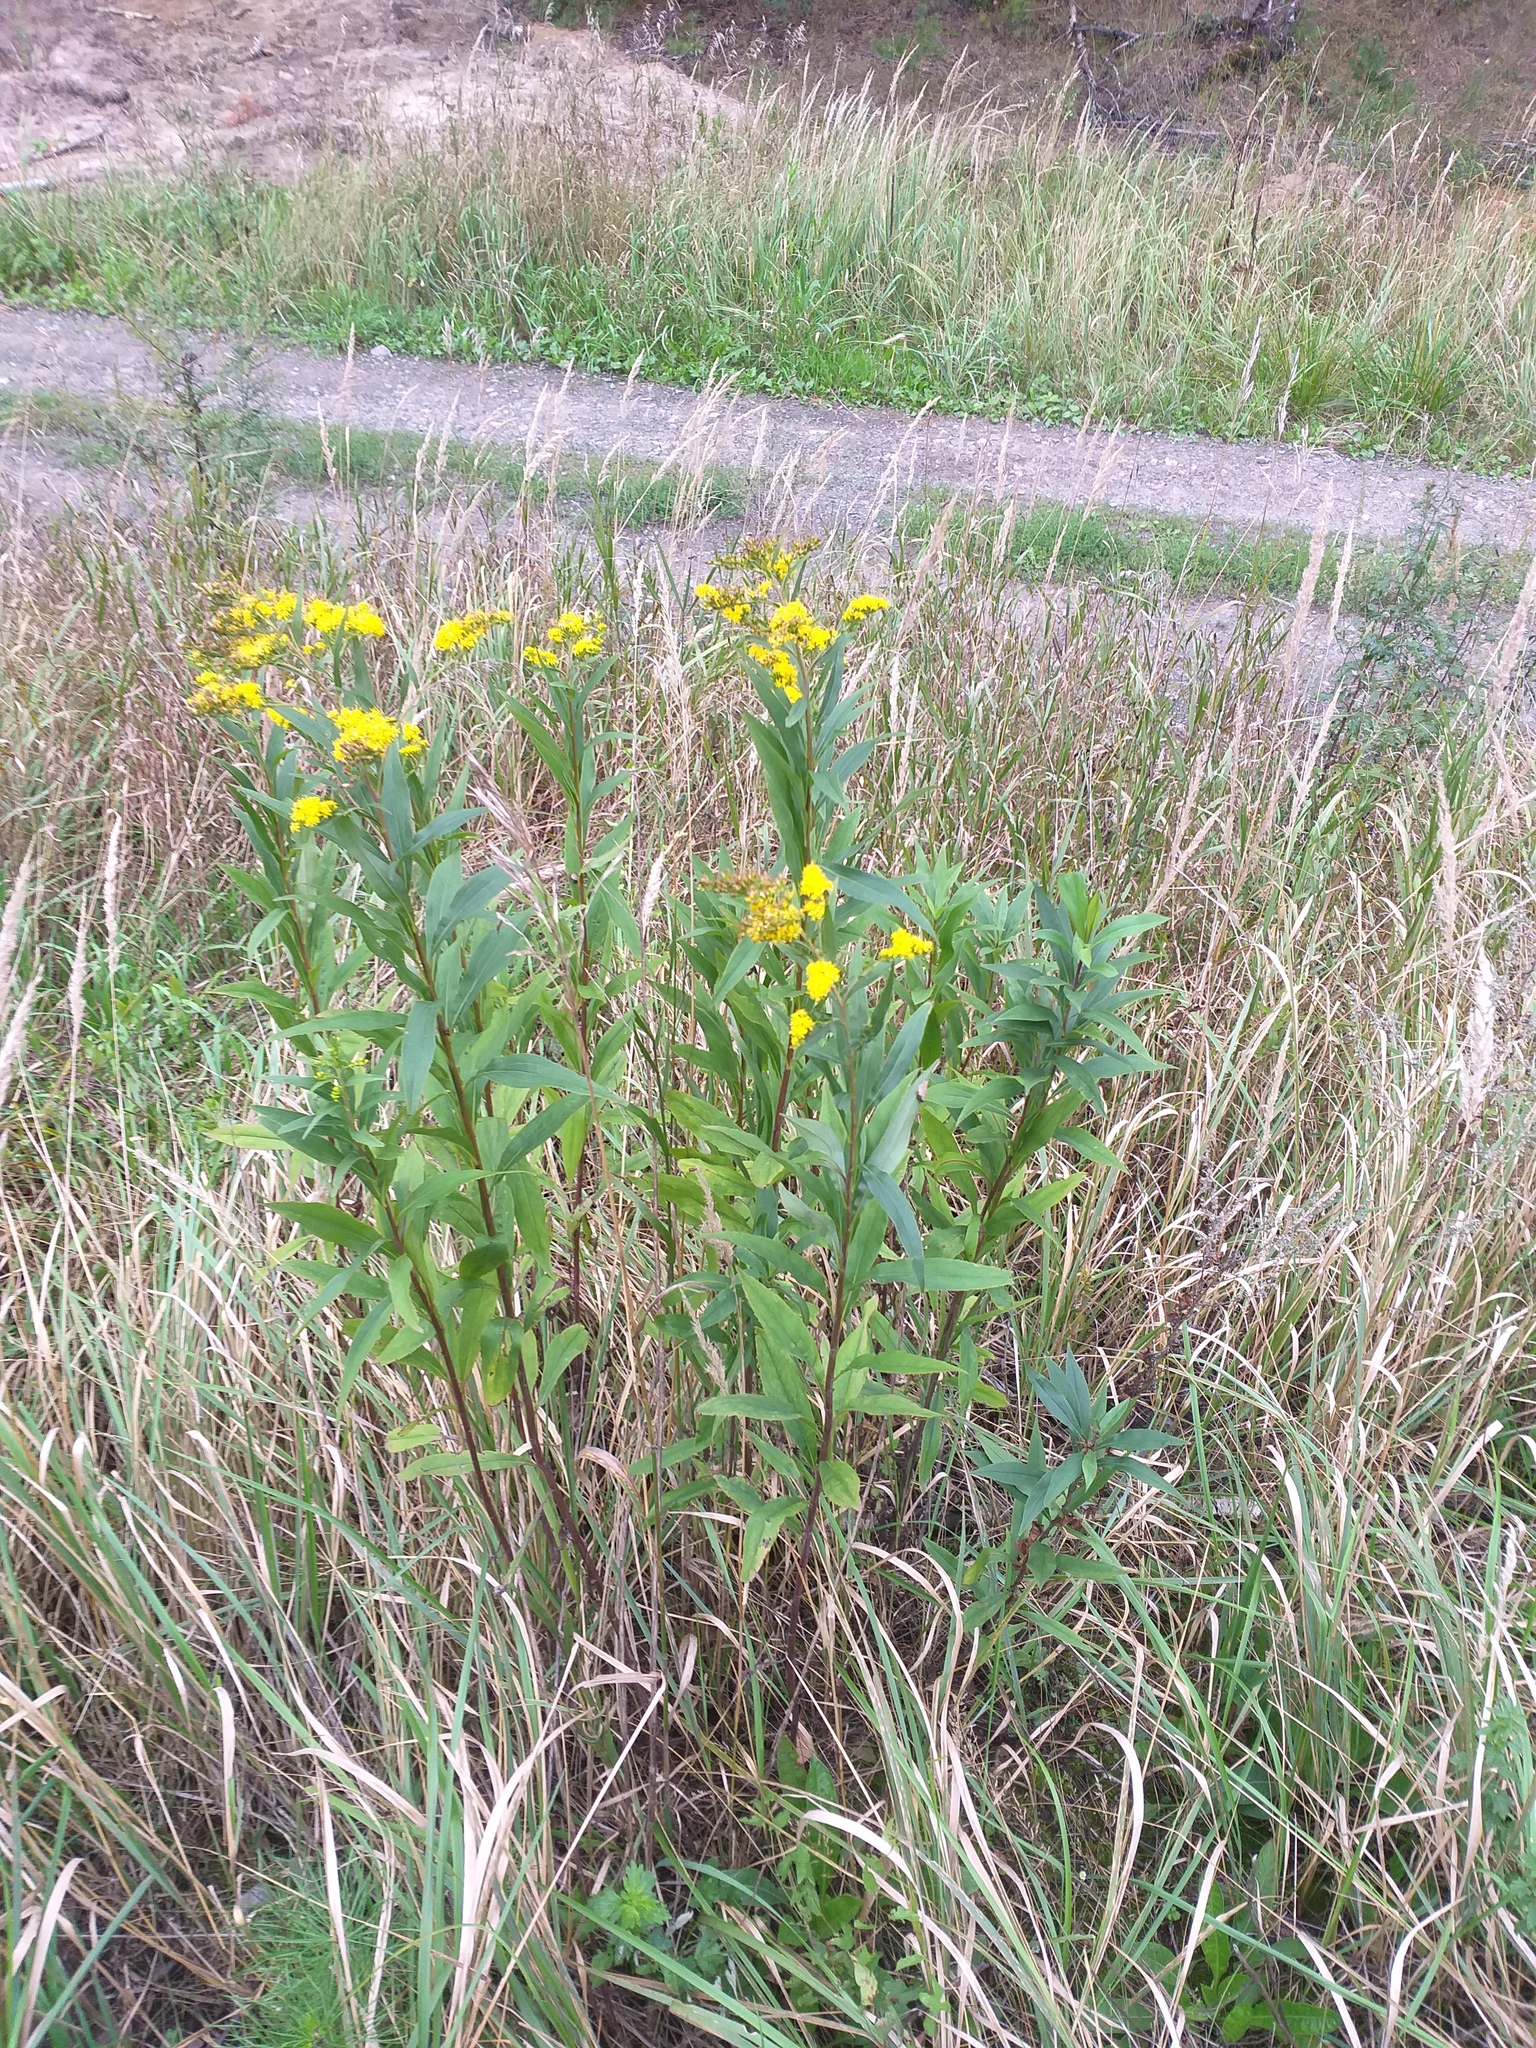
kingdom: Plantae
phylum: Tracheophyta
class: Magnoliopsida
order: Asterales
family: Asteraceae
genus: Solidago
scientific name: Solidago gigantea
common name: Giant goldenrod
